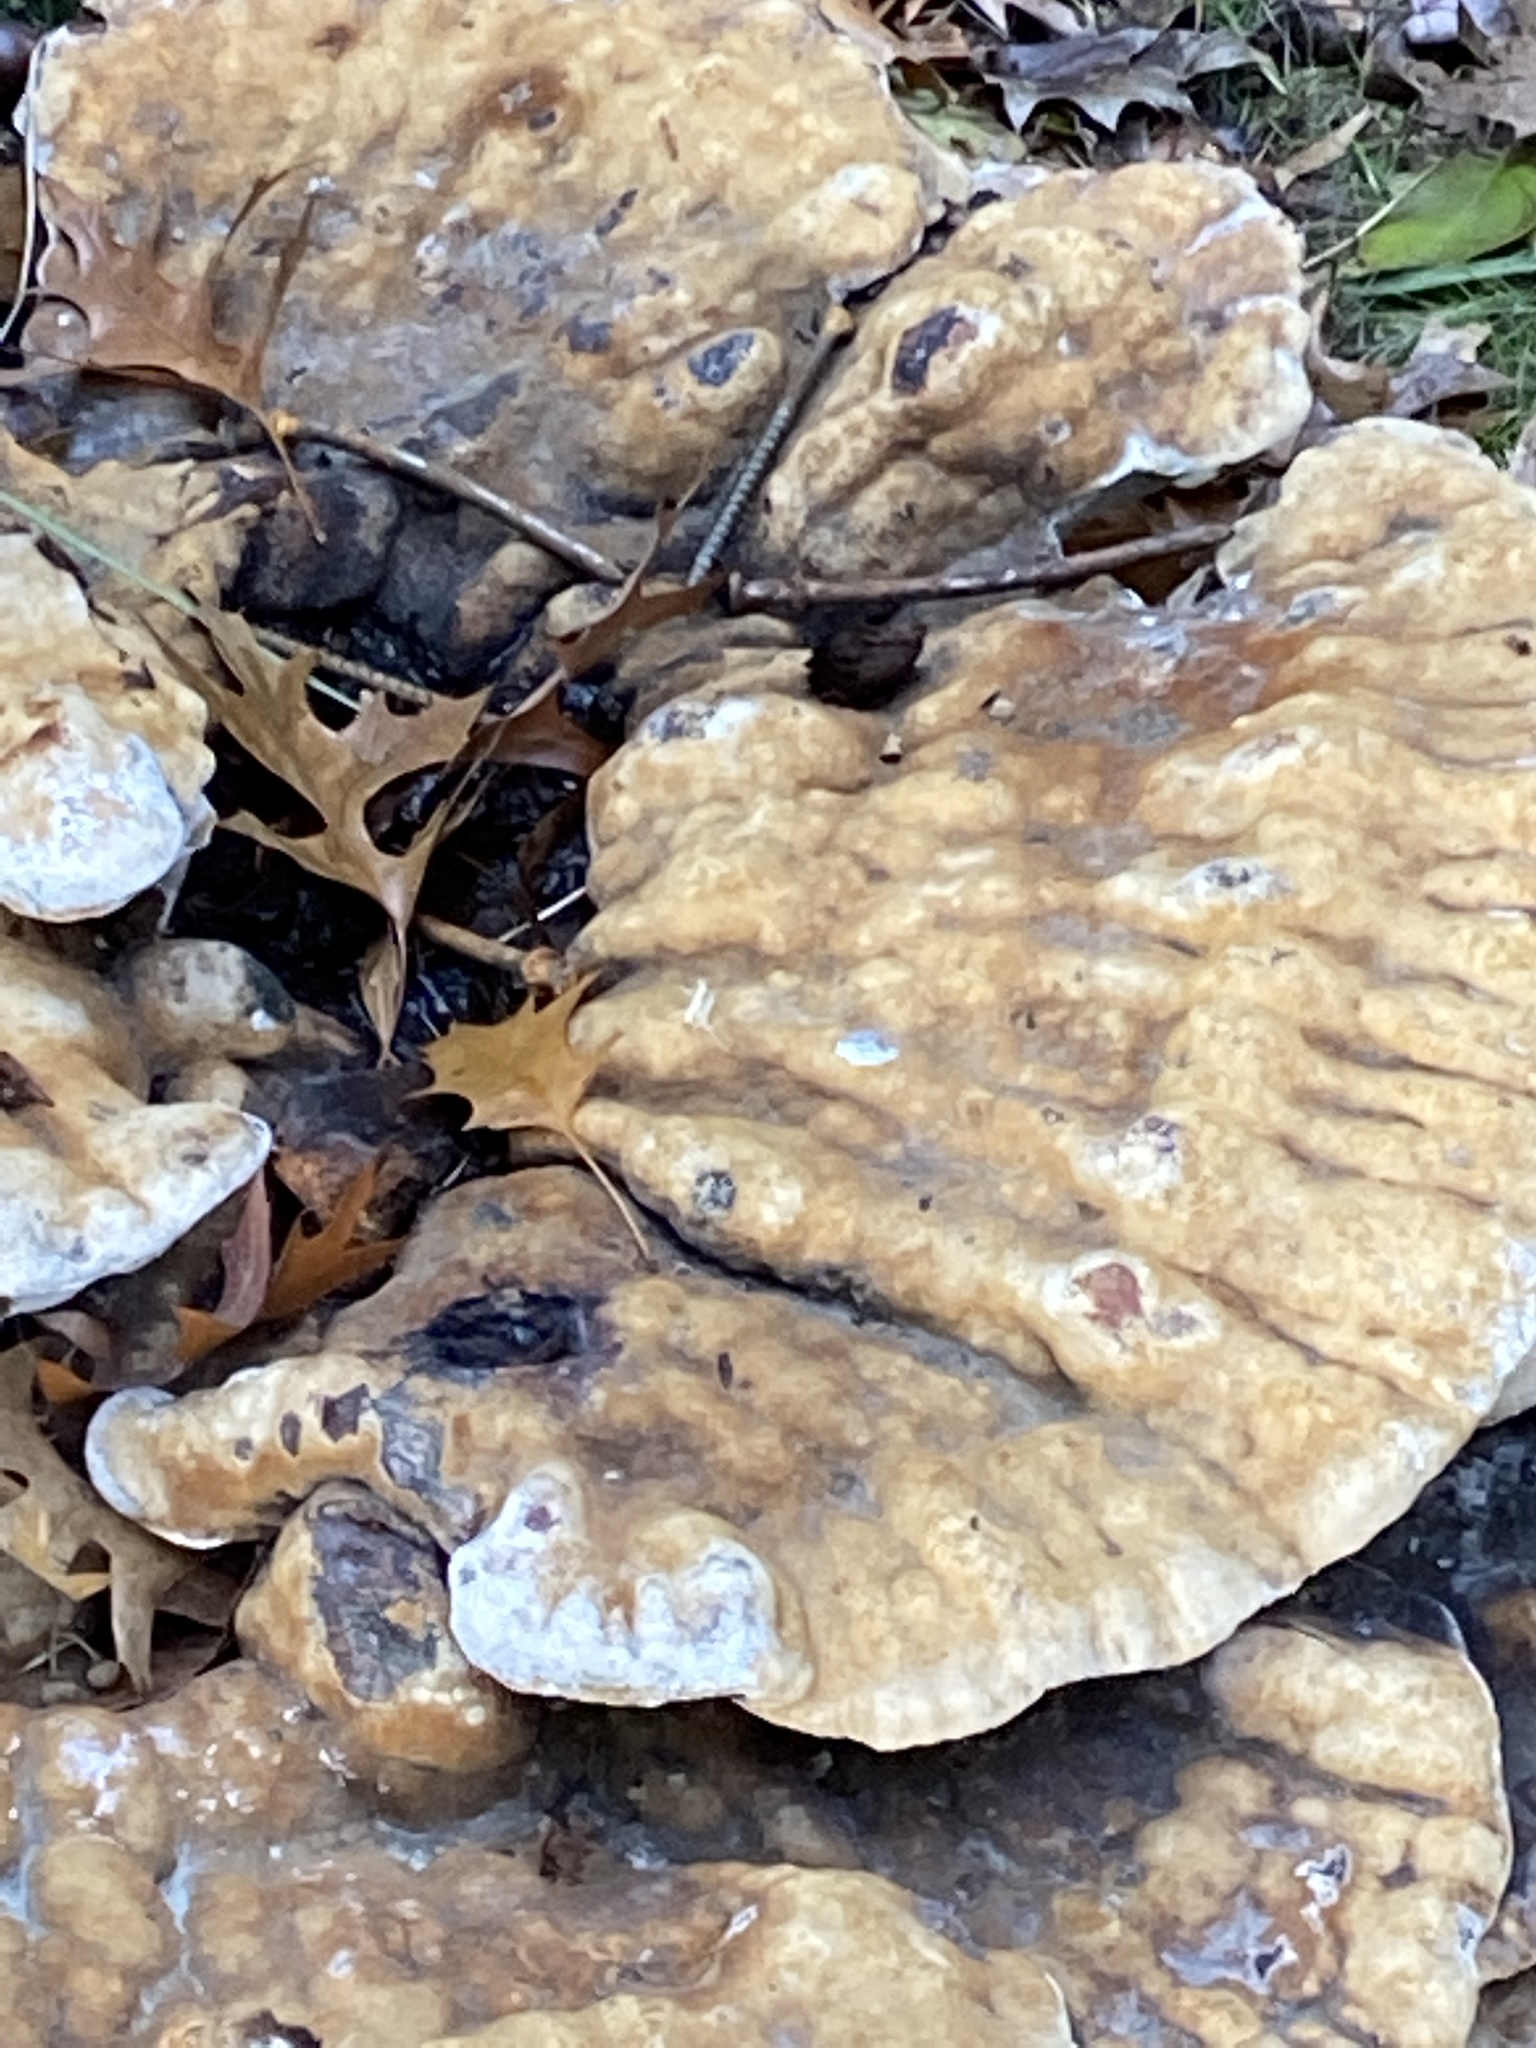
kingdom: Fungi
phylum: Basidiomycota
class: Agaricomycetes
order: Hymenochaetales
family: Hymenochaetaceae
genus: Pseudoinonotus
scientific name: Pseudoinonotus dryadeus
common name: Oak bracket
